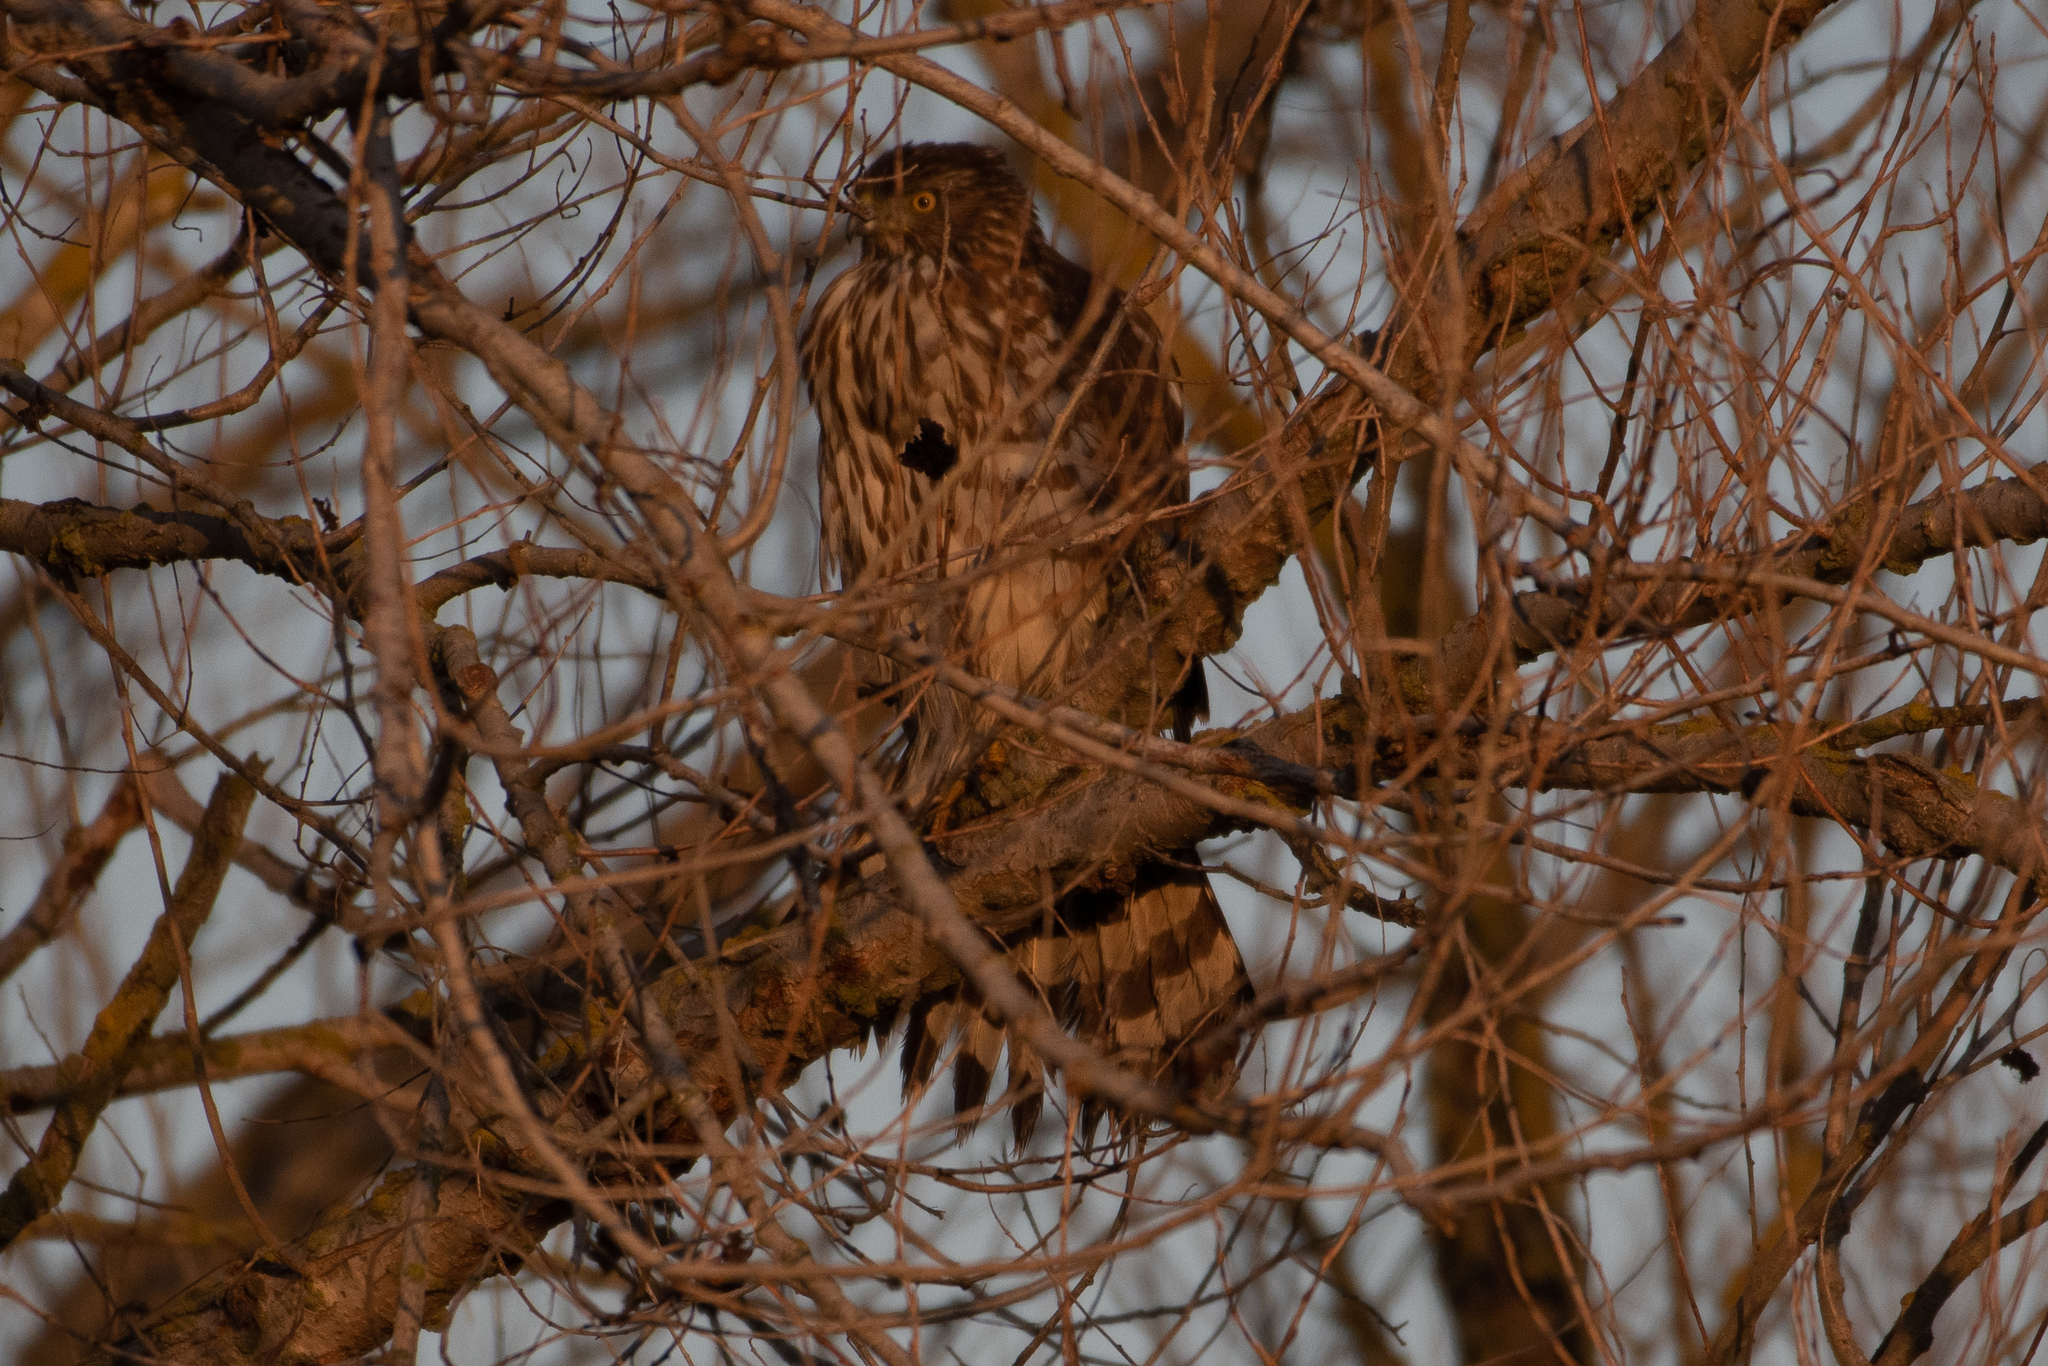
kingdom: Animalia
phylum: Chordata
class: Aves
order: Accipitriformes
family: Accipitridae
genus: Accipiter
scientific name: Accipiter cooperii
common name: Cooper's hawk
